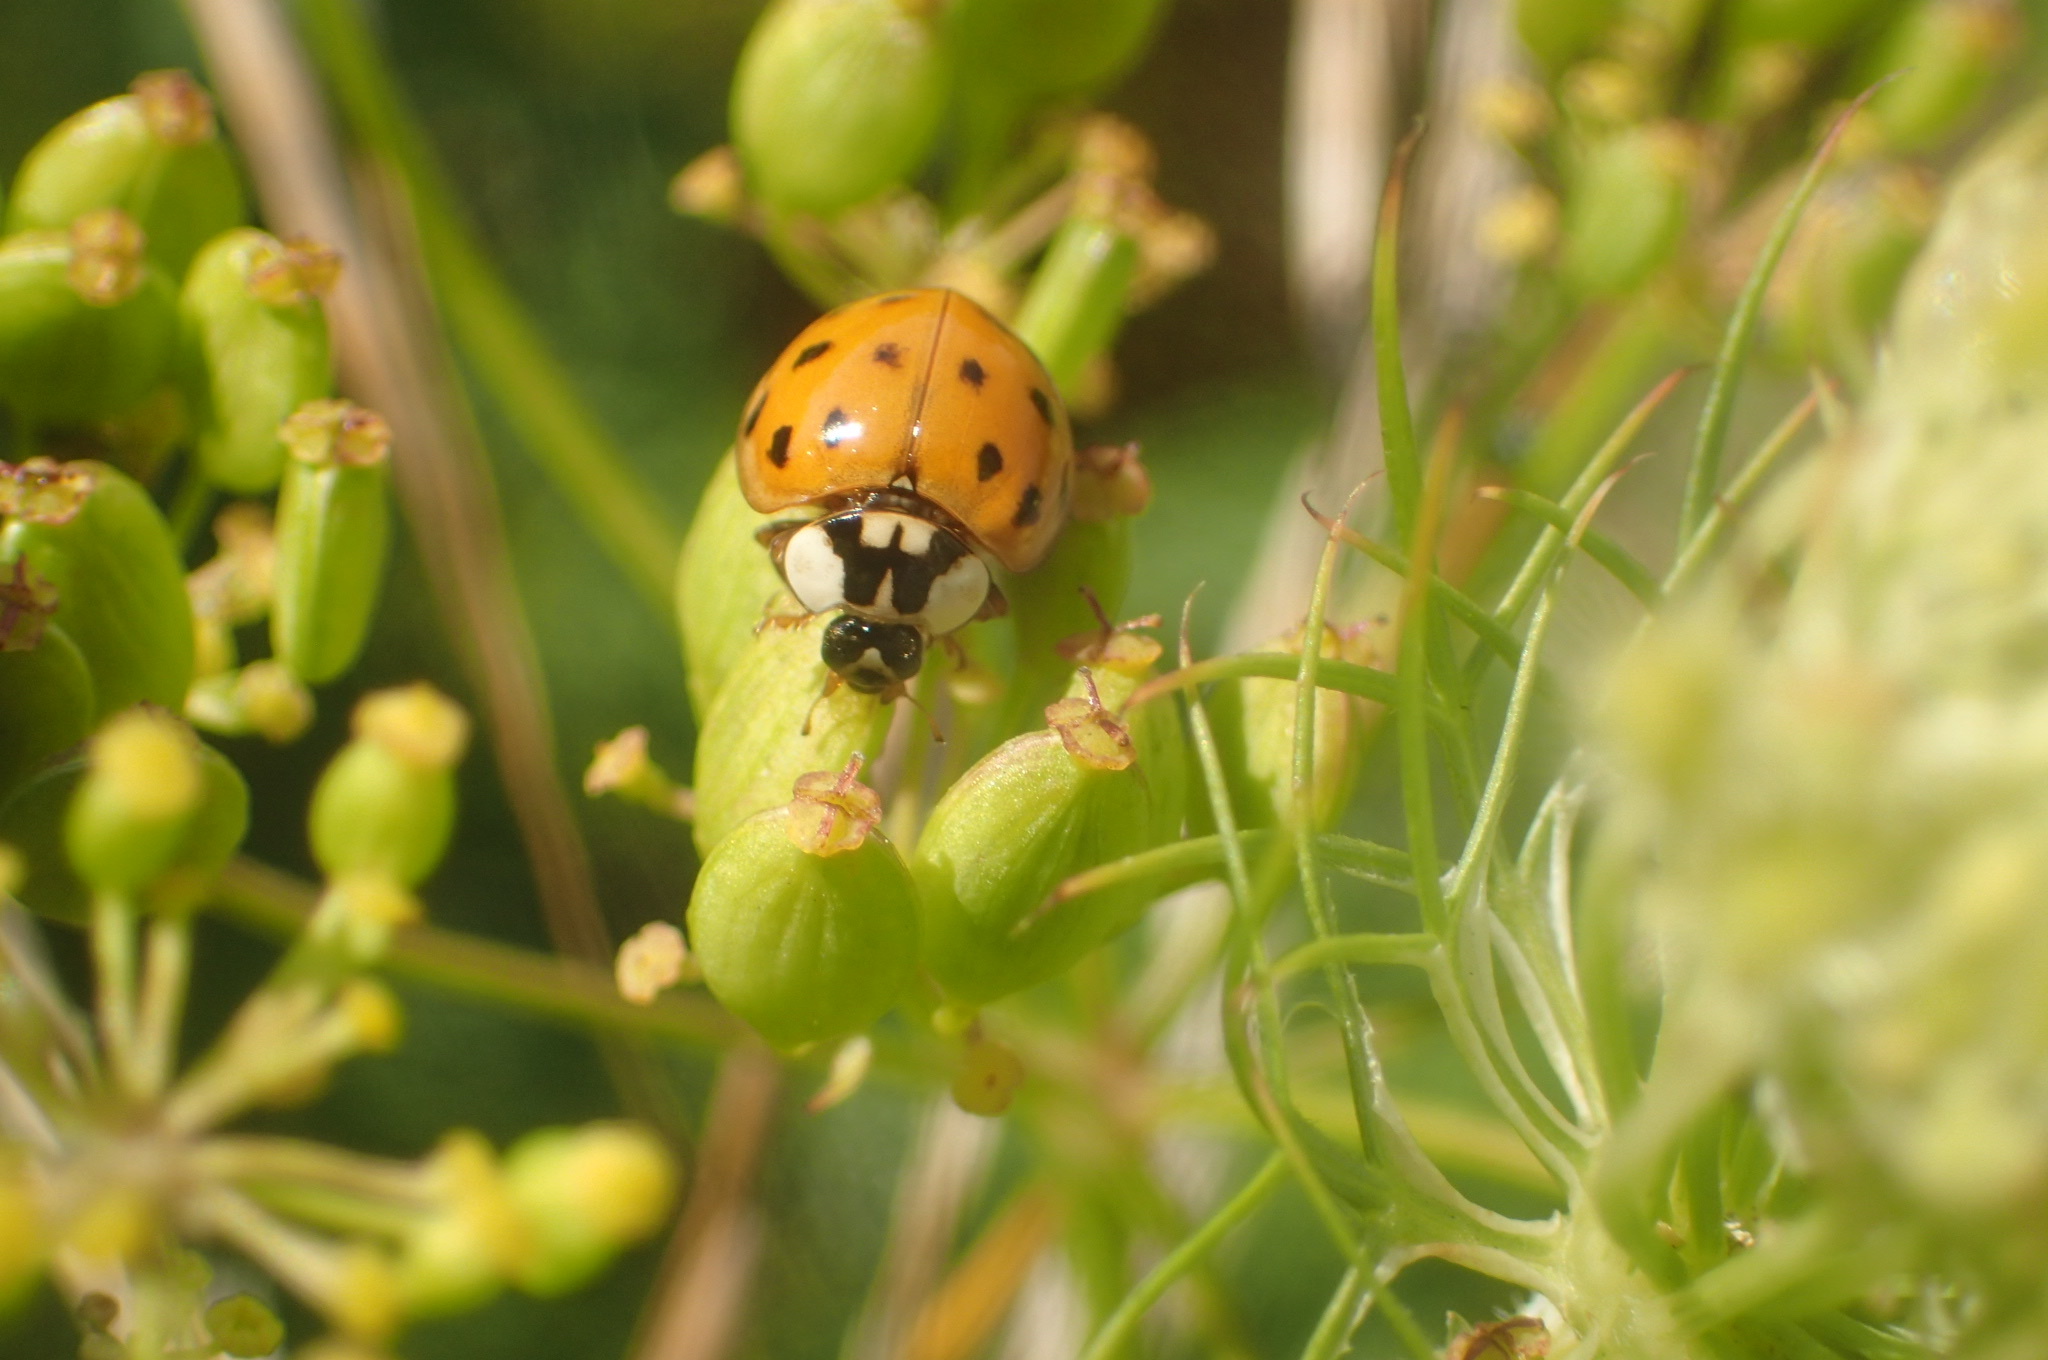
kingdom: Animalia
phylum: Arthropoda
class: Insecta
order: Coleoptera
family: Coccinellidae
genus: Harmonia
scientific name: Harmonia axyridis
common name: Harlequin ladybird
